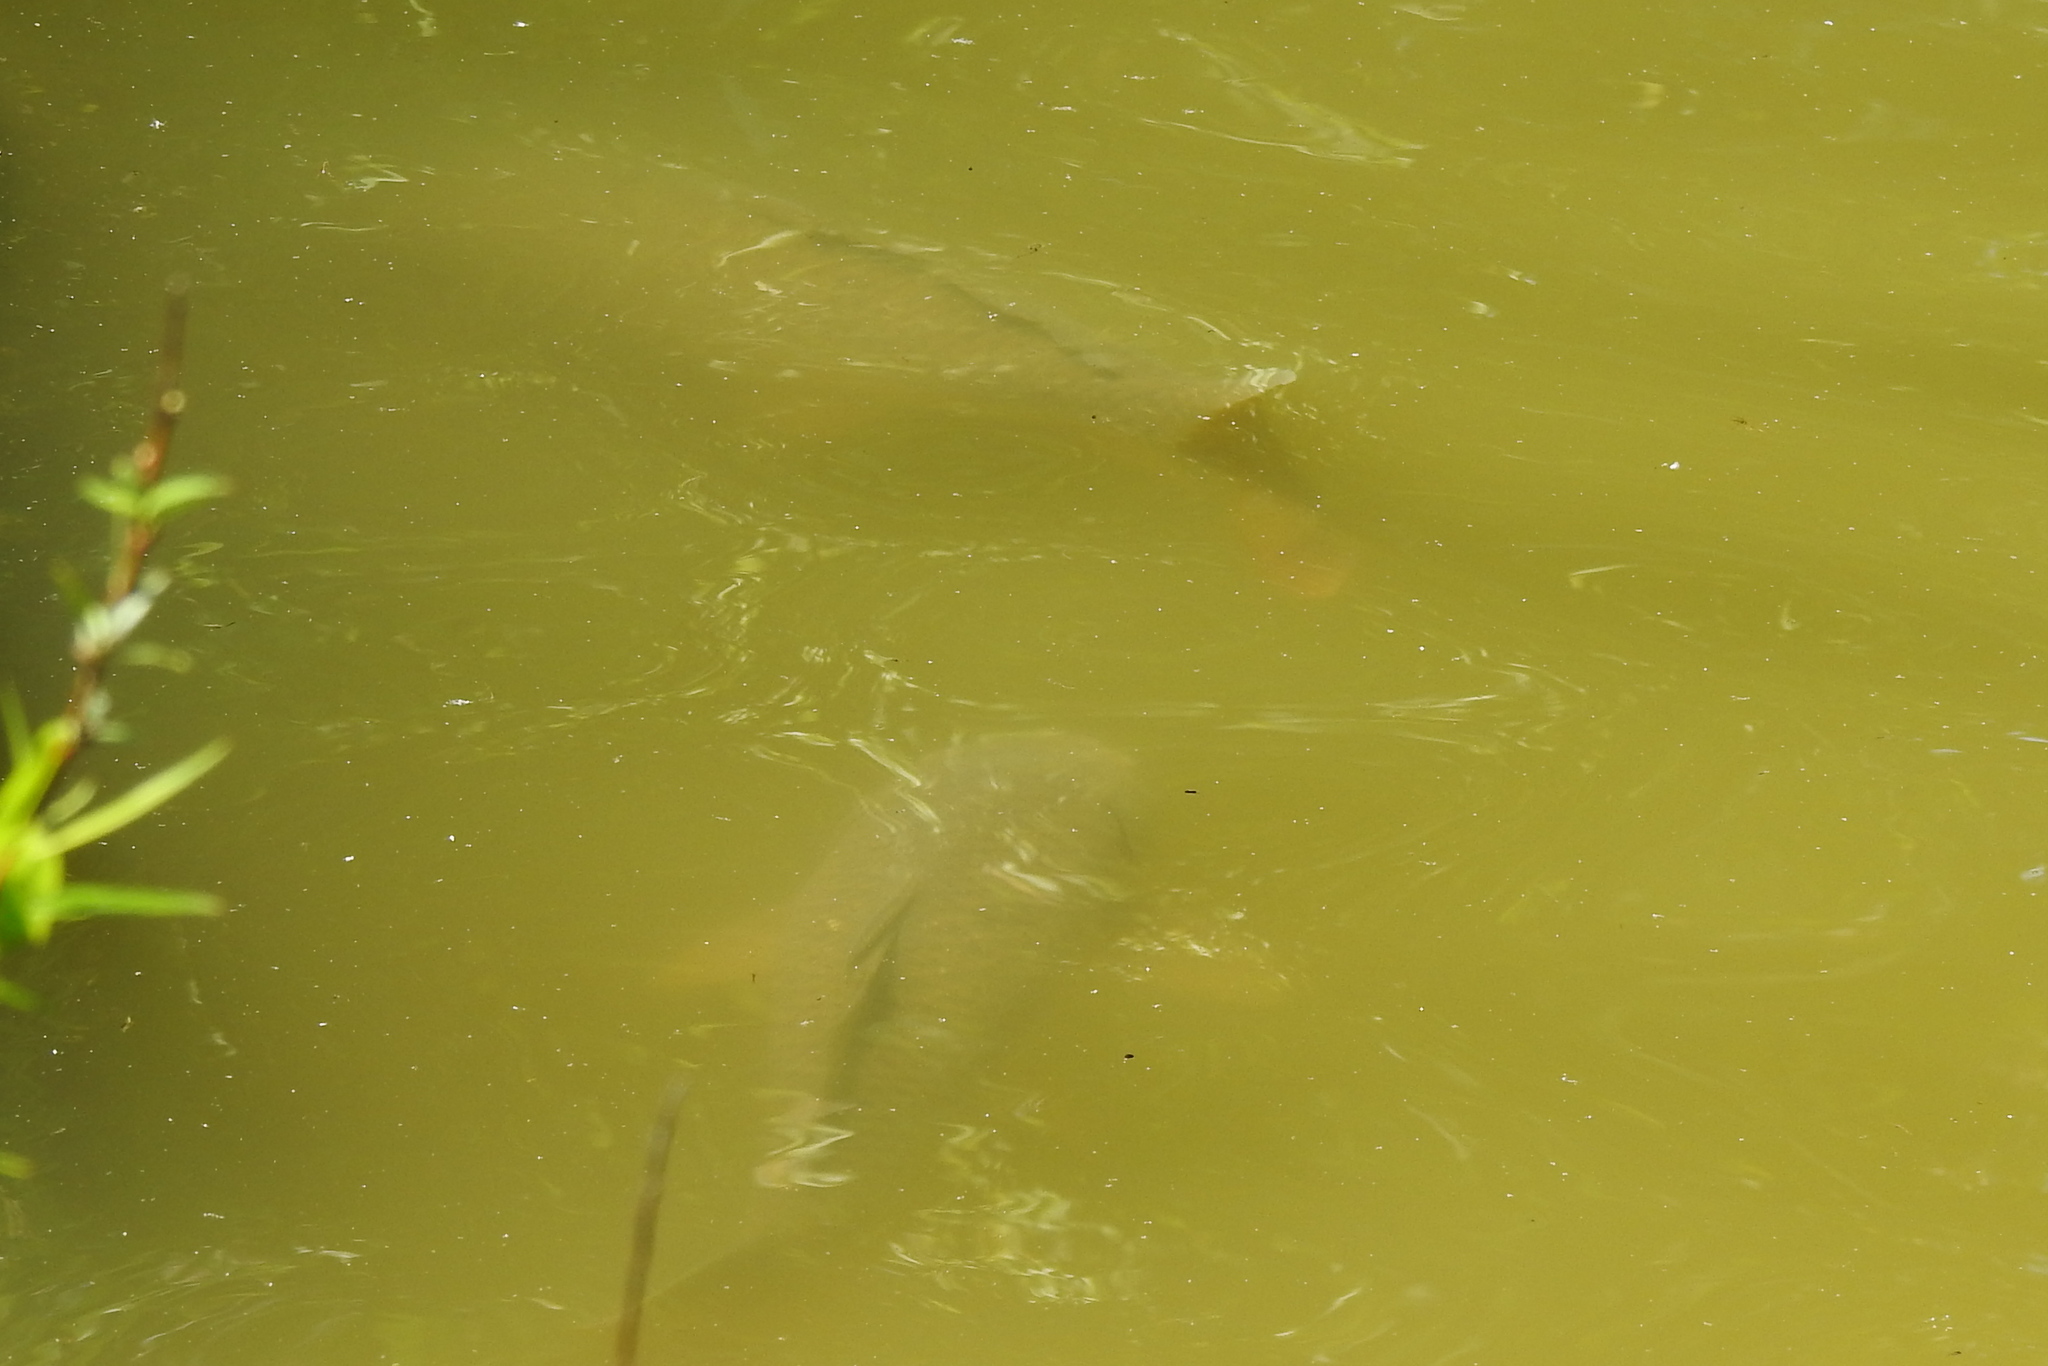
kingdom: Animalia
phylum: Chordata
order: Cypriniformes
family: Cyprinidae
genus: Cyprinus
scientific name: Cyprinus carpio
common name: Common carp
